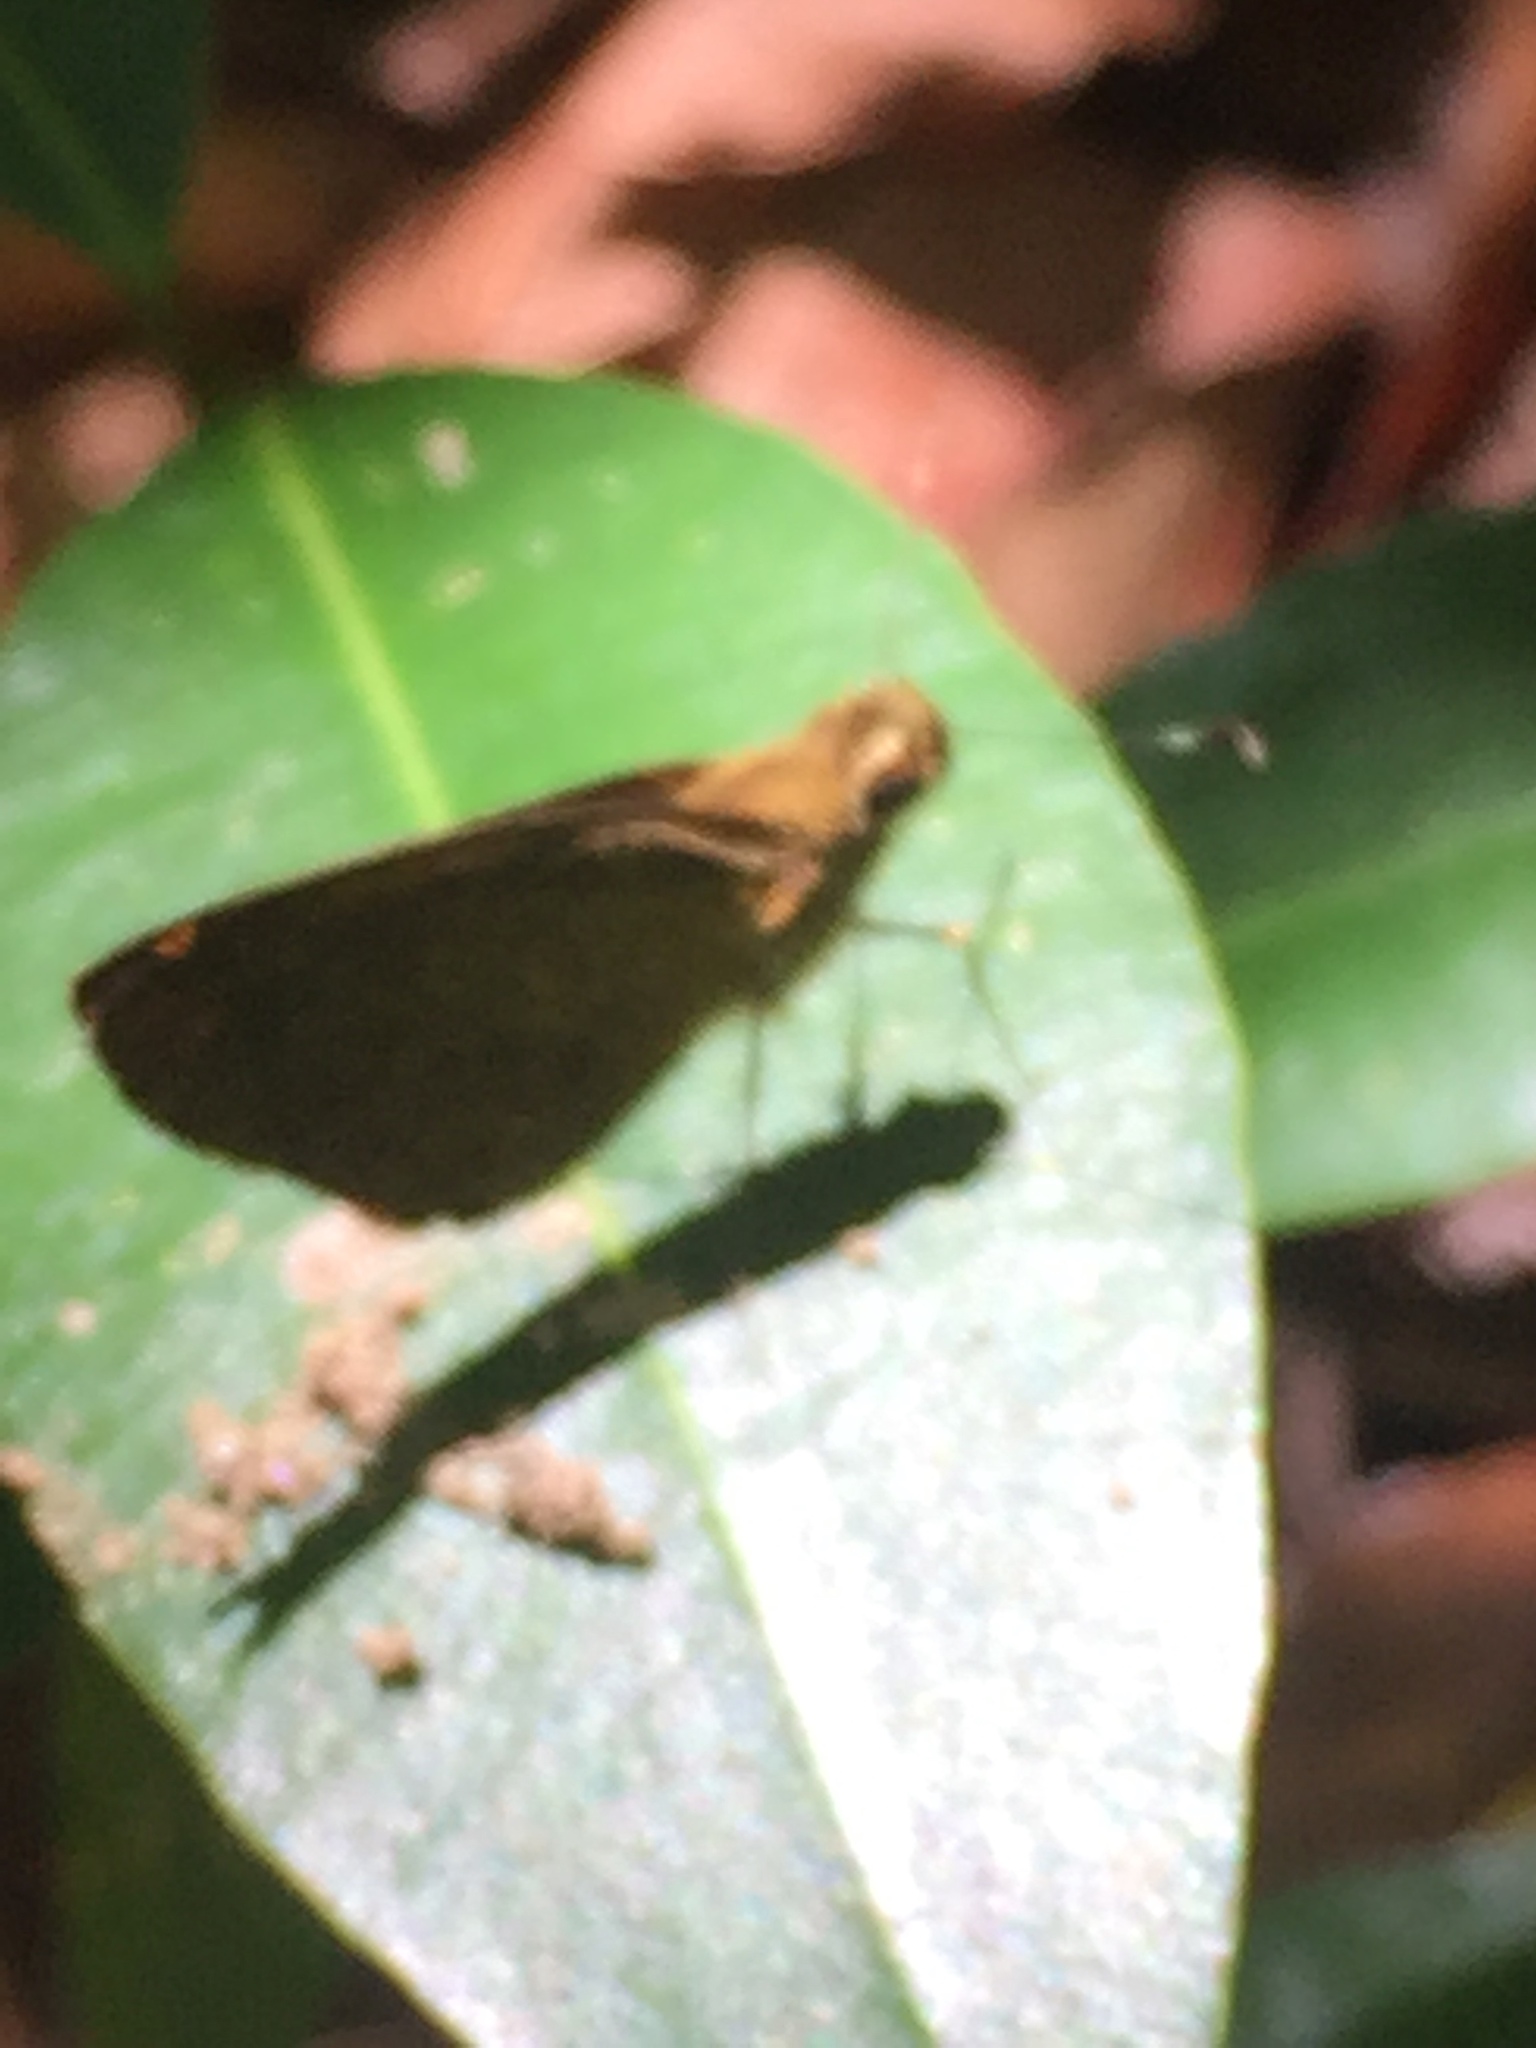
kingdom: Animalia
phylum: Arthropoda
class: Insecta
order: Lepidoptera
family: Hesperiidae
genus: Synapte
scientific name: Synapte malitiosa
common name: Caribbean faceted-skipper
